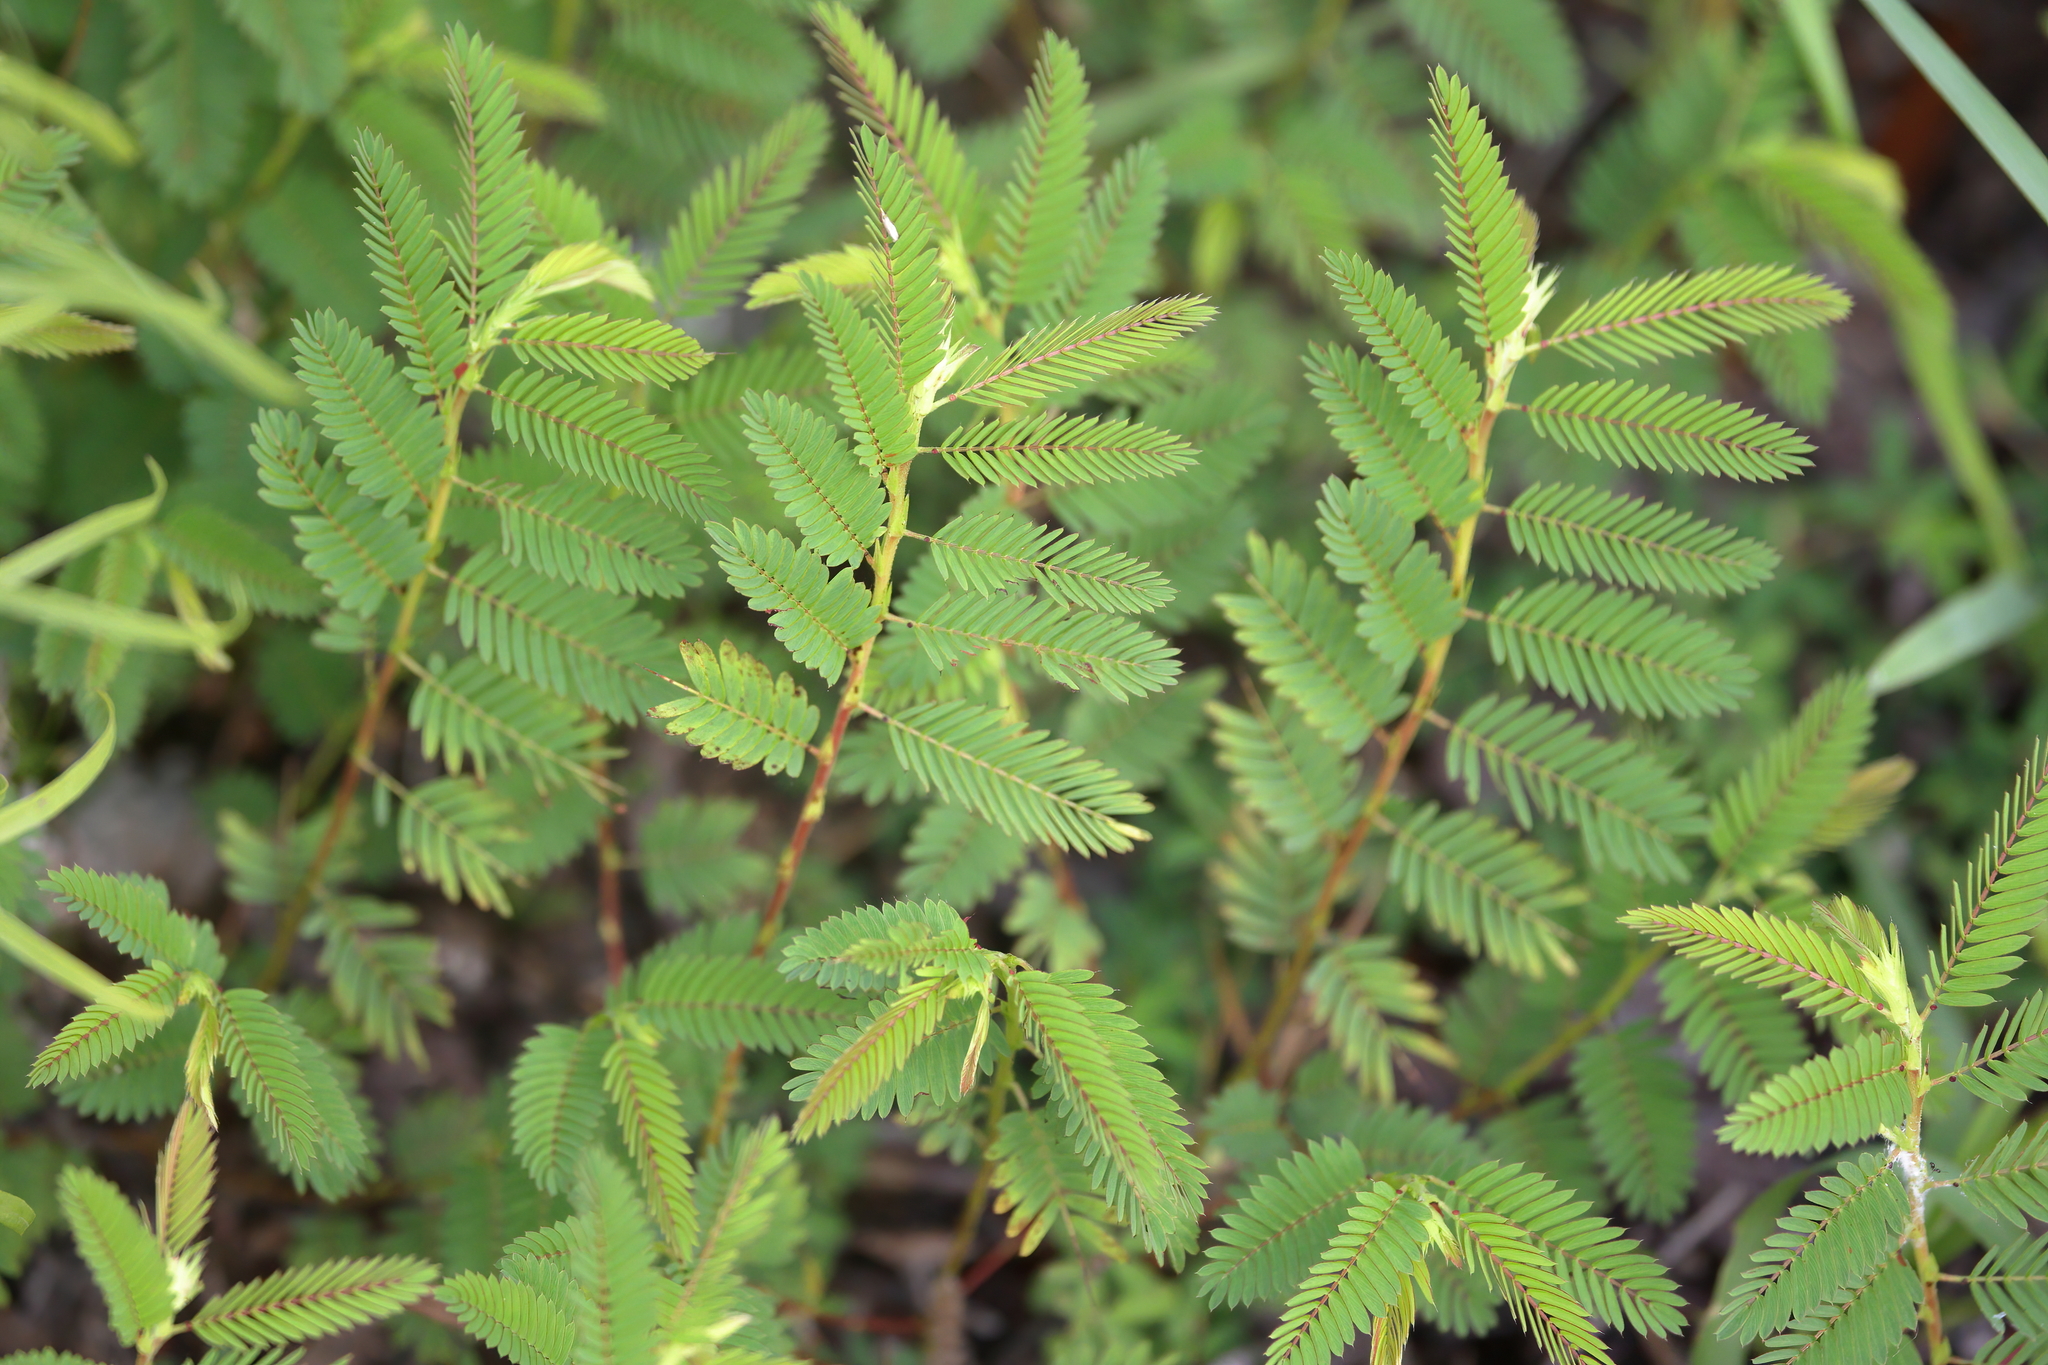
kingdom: Plantae
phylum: Tracheophyta
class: Magnoliopsida
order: Fabales
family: Fabaceae
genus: Chamaecrista
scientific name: Chamaecrista nictitans
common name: Sensitive cassia
